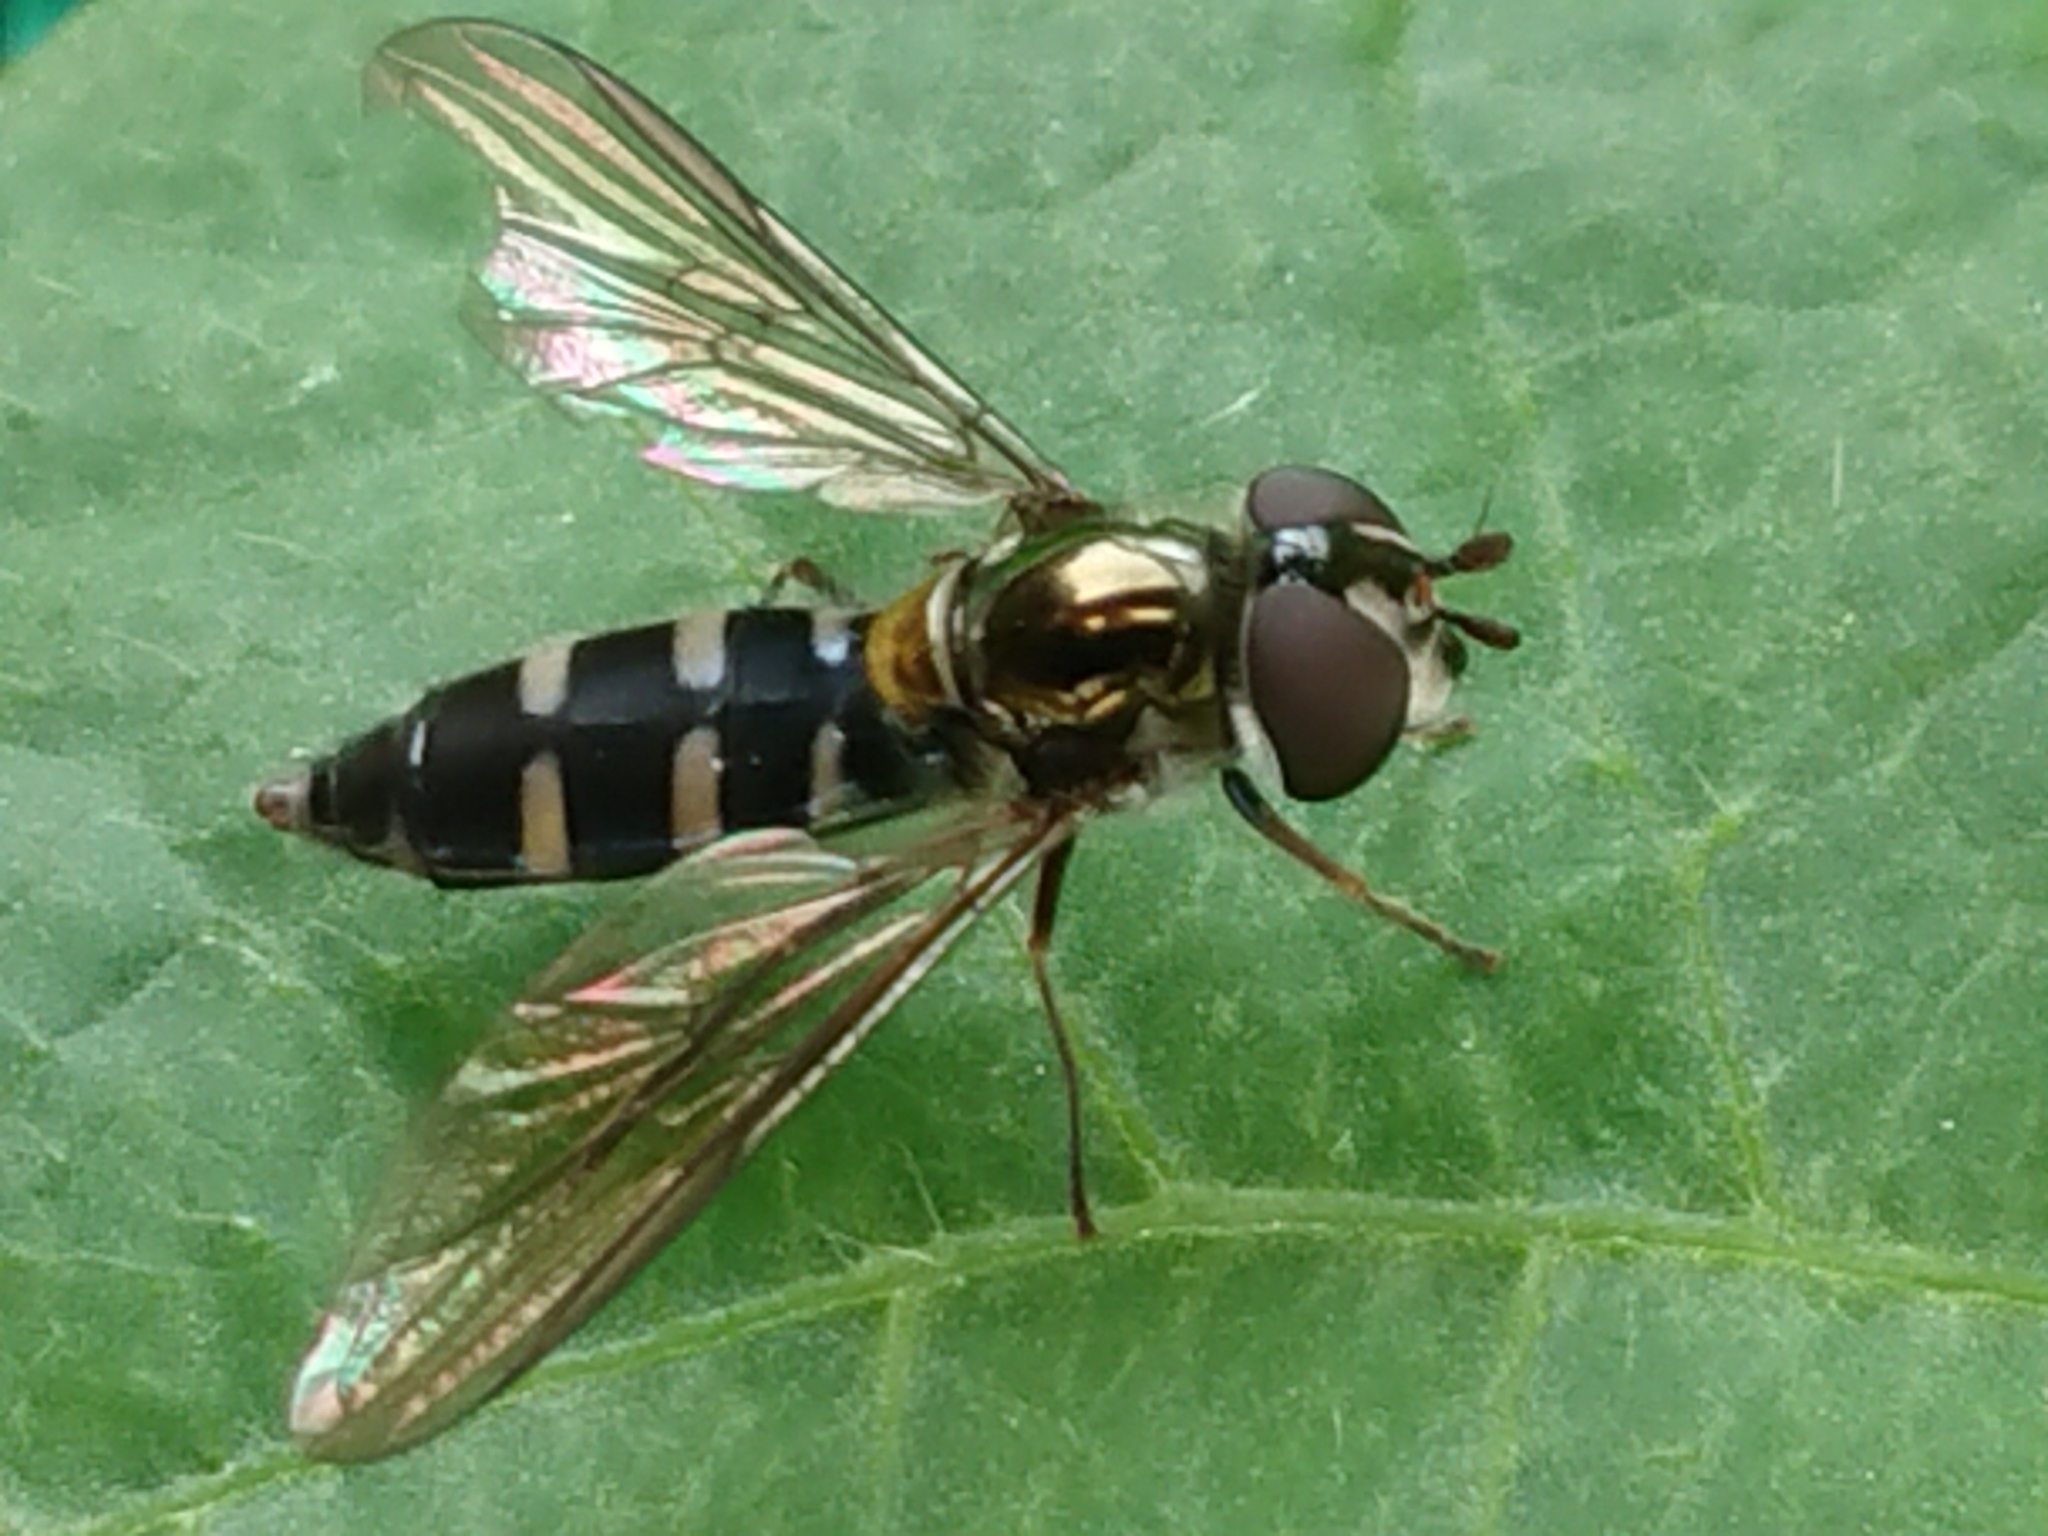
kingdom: Animalia
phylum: Arthropoda
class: Insecta
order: Diptera
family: Syrphidae
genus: Melangyna
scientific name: Melangyna novaezelandiae
